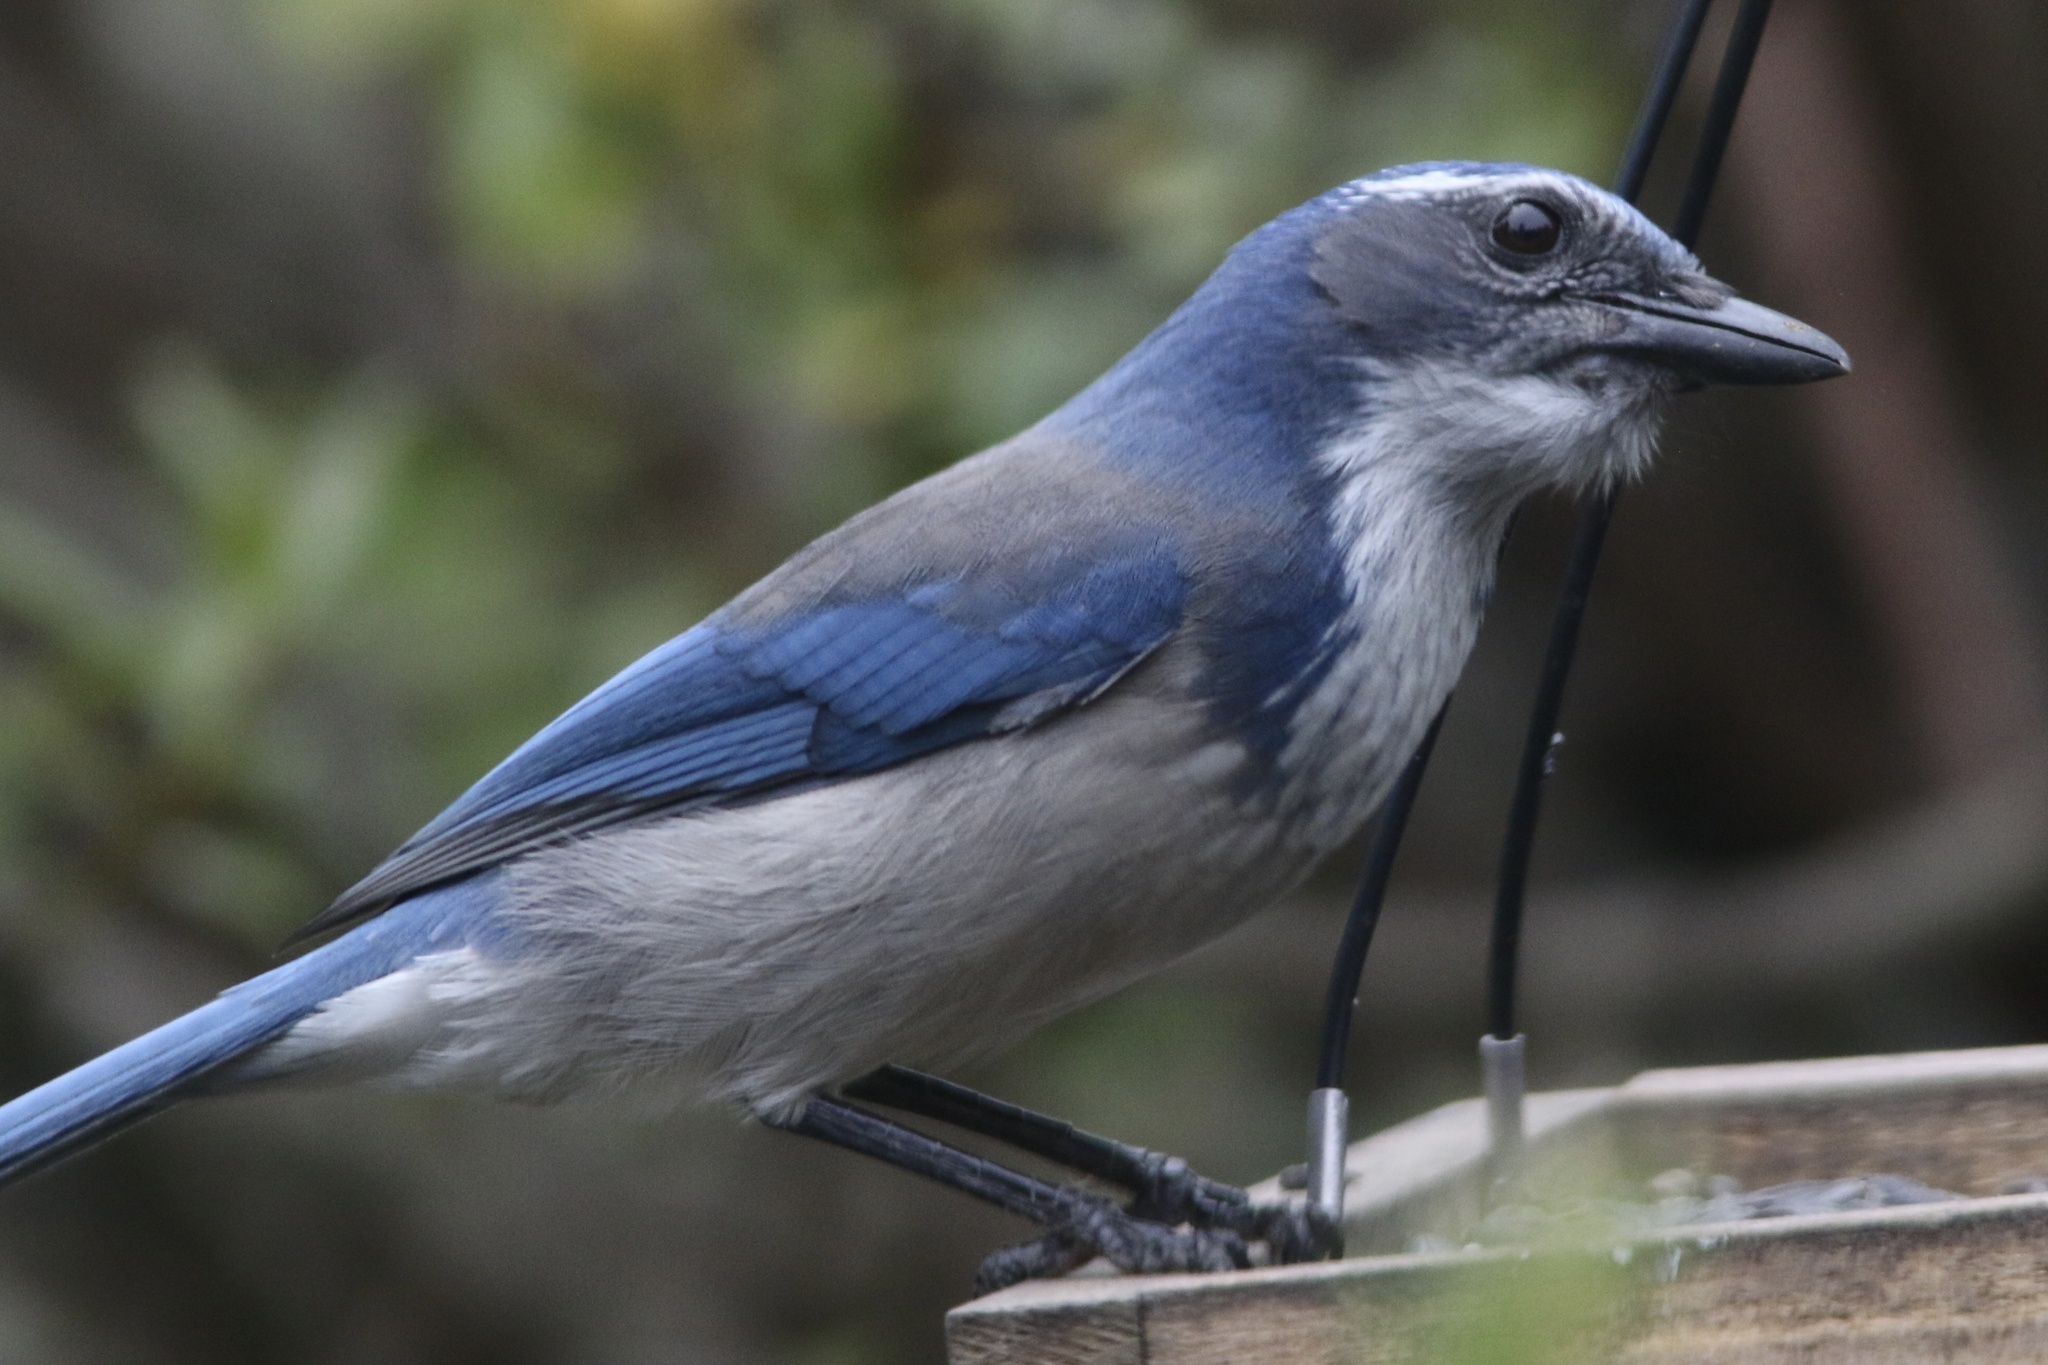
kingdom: Animalia
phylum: Chordata
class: Aves
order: Passeriformes
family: Corvidae
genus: Aphelocoma
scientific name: Aphelocoma californica
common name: California scrub-jay
